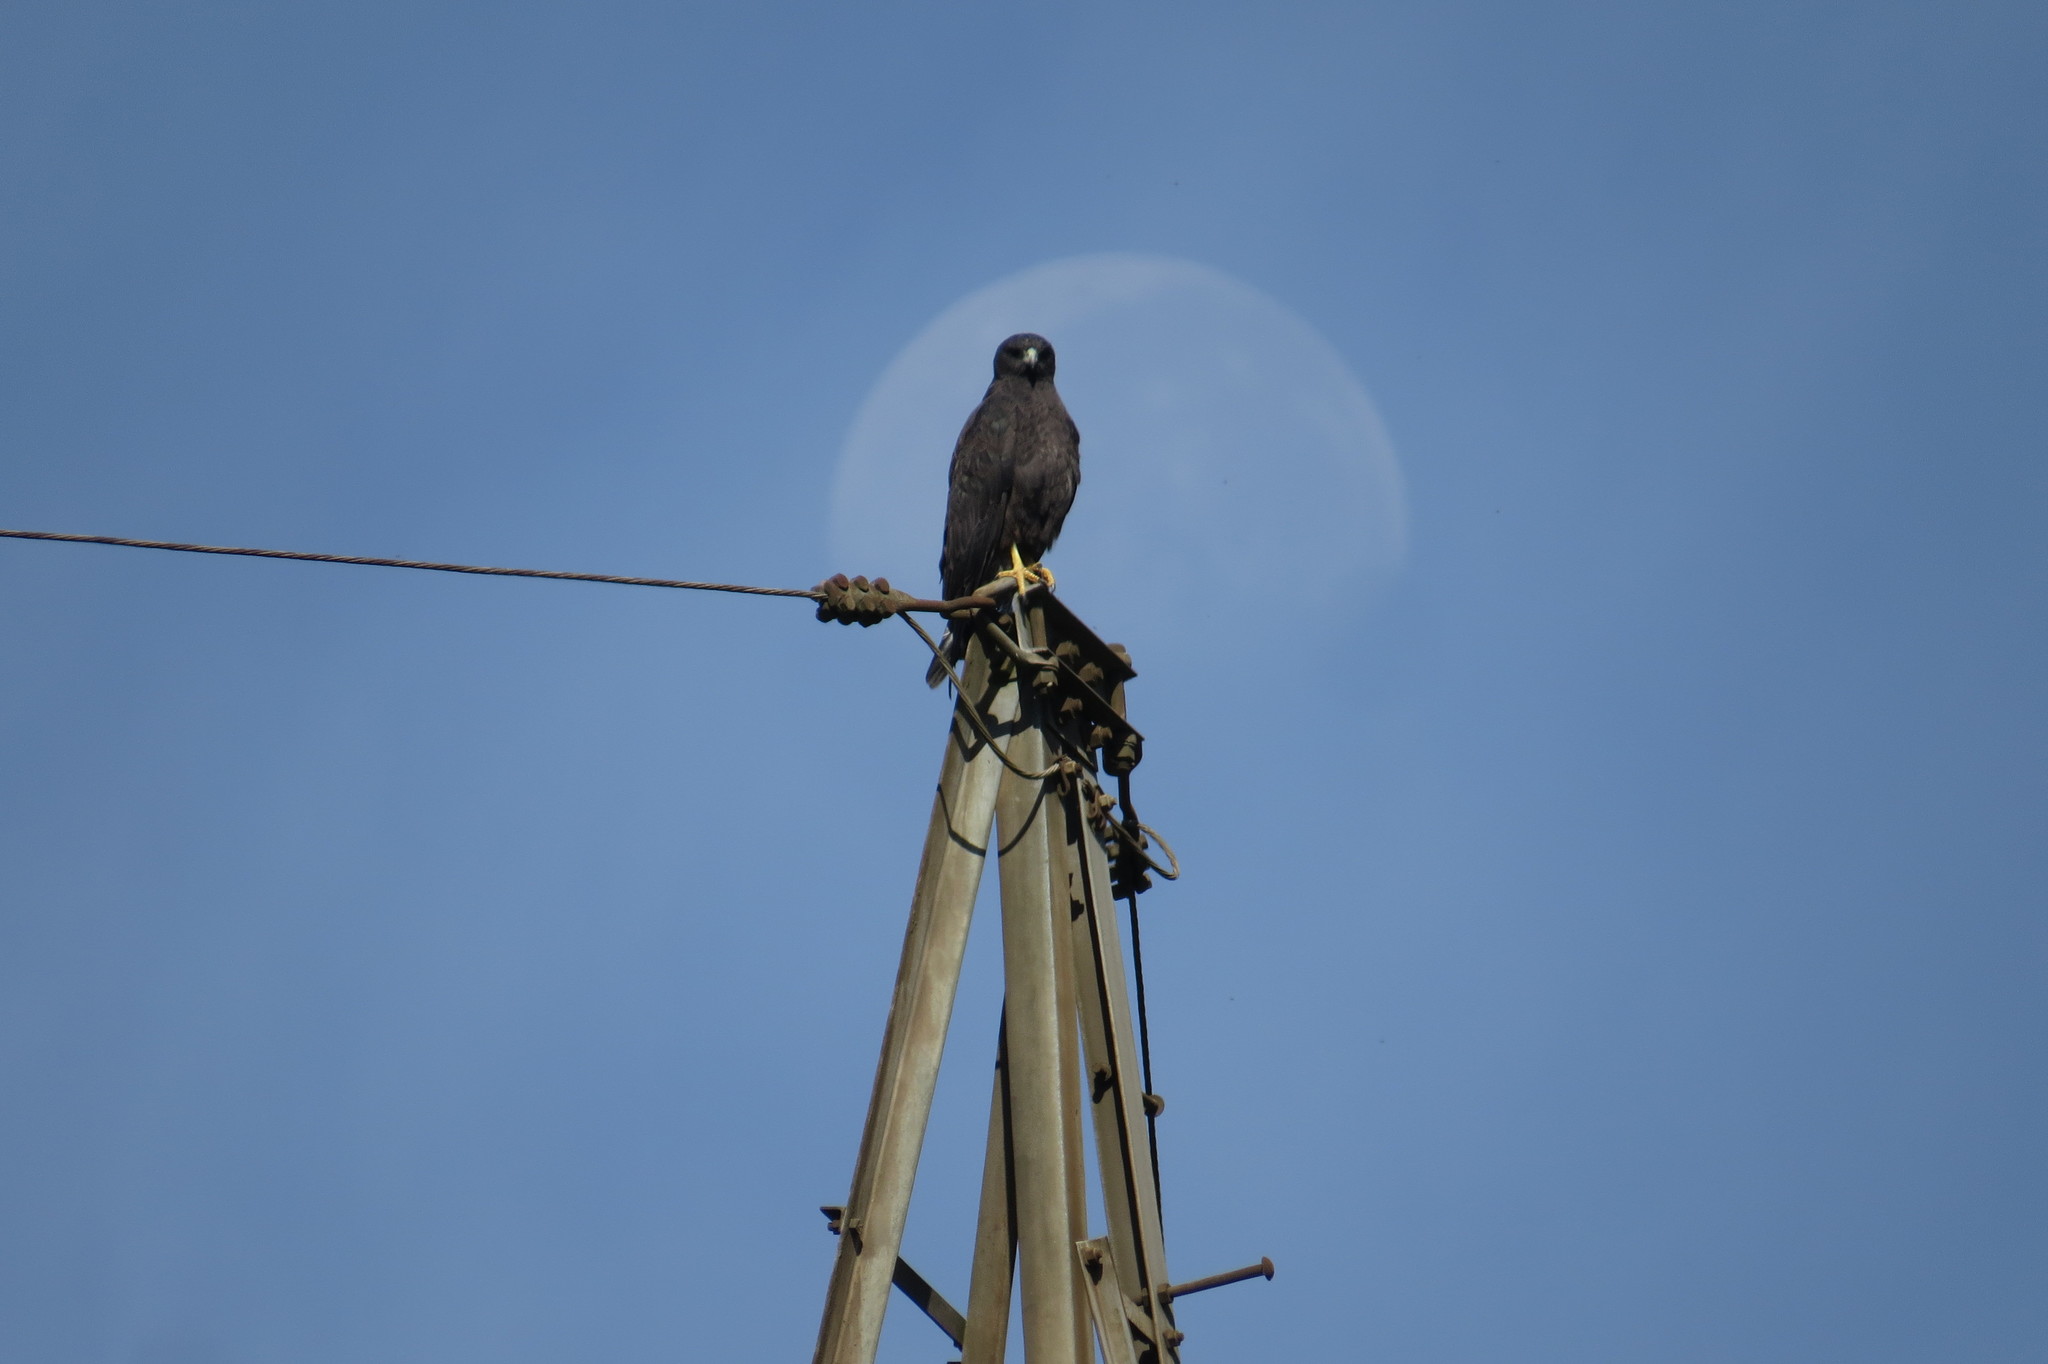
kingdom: Animalia
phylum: Chordata
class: Aves
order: Accipitriformes
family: Accipitridae
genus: Buteo
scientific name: Buteo albicaudatus
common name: White-tailed hawk
